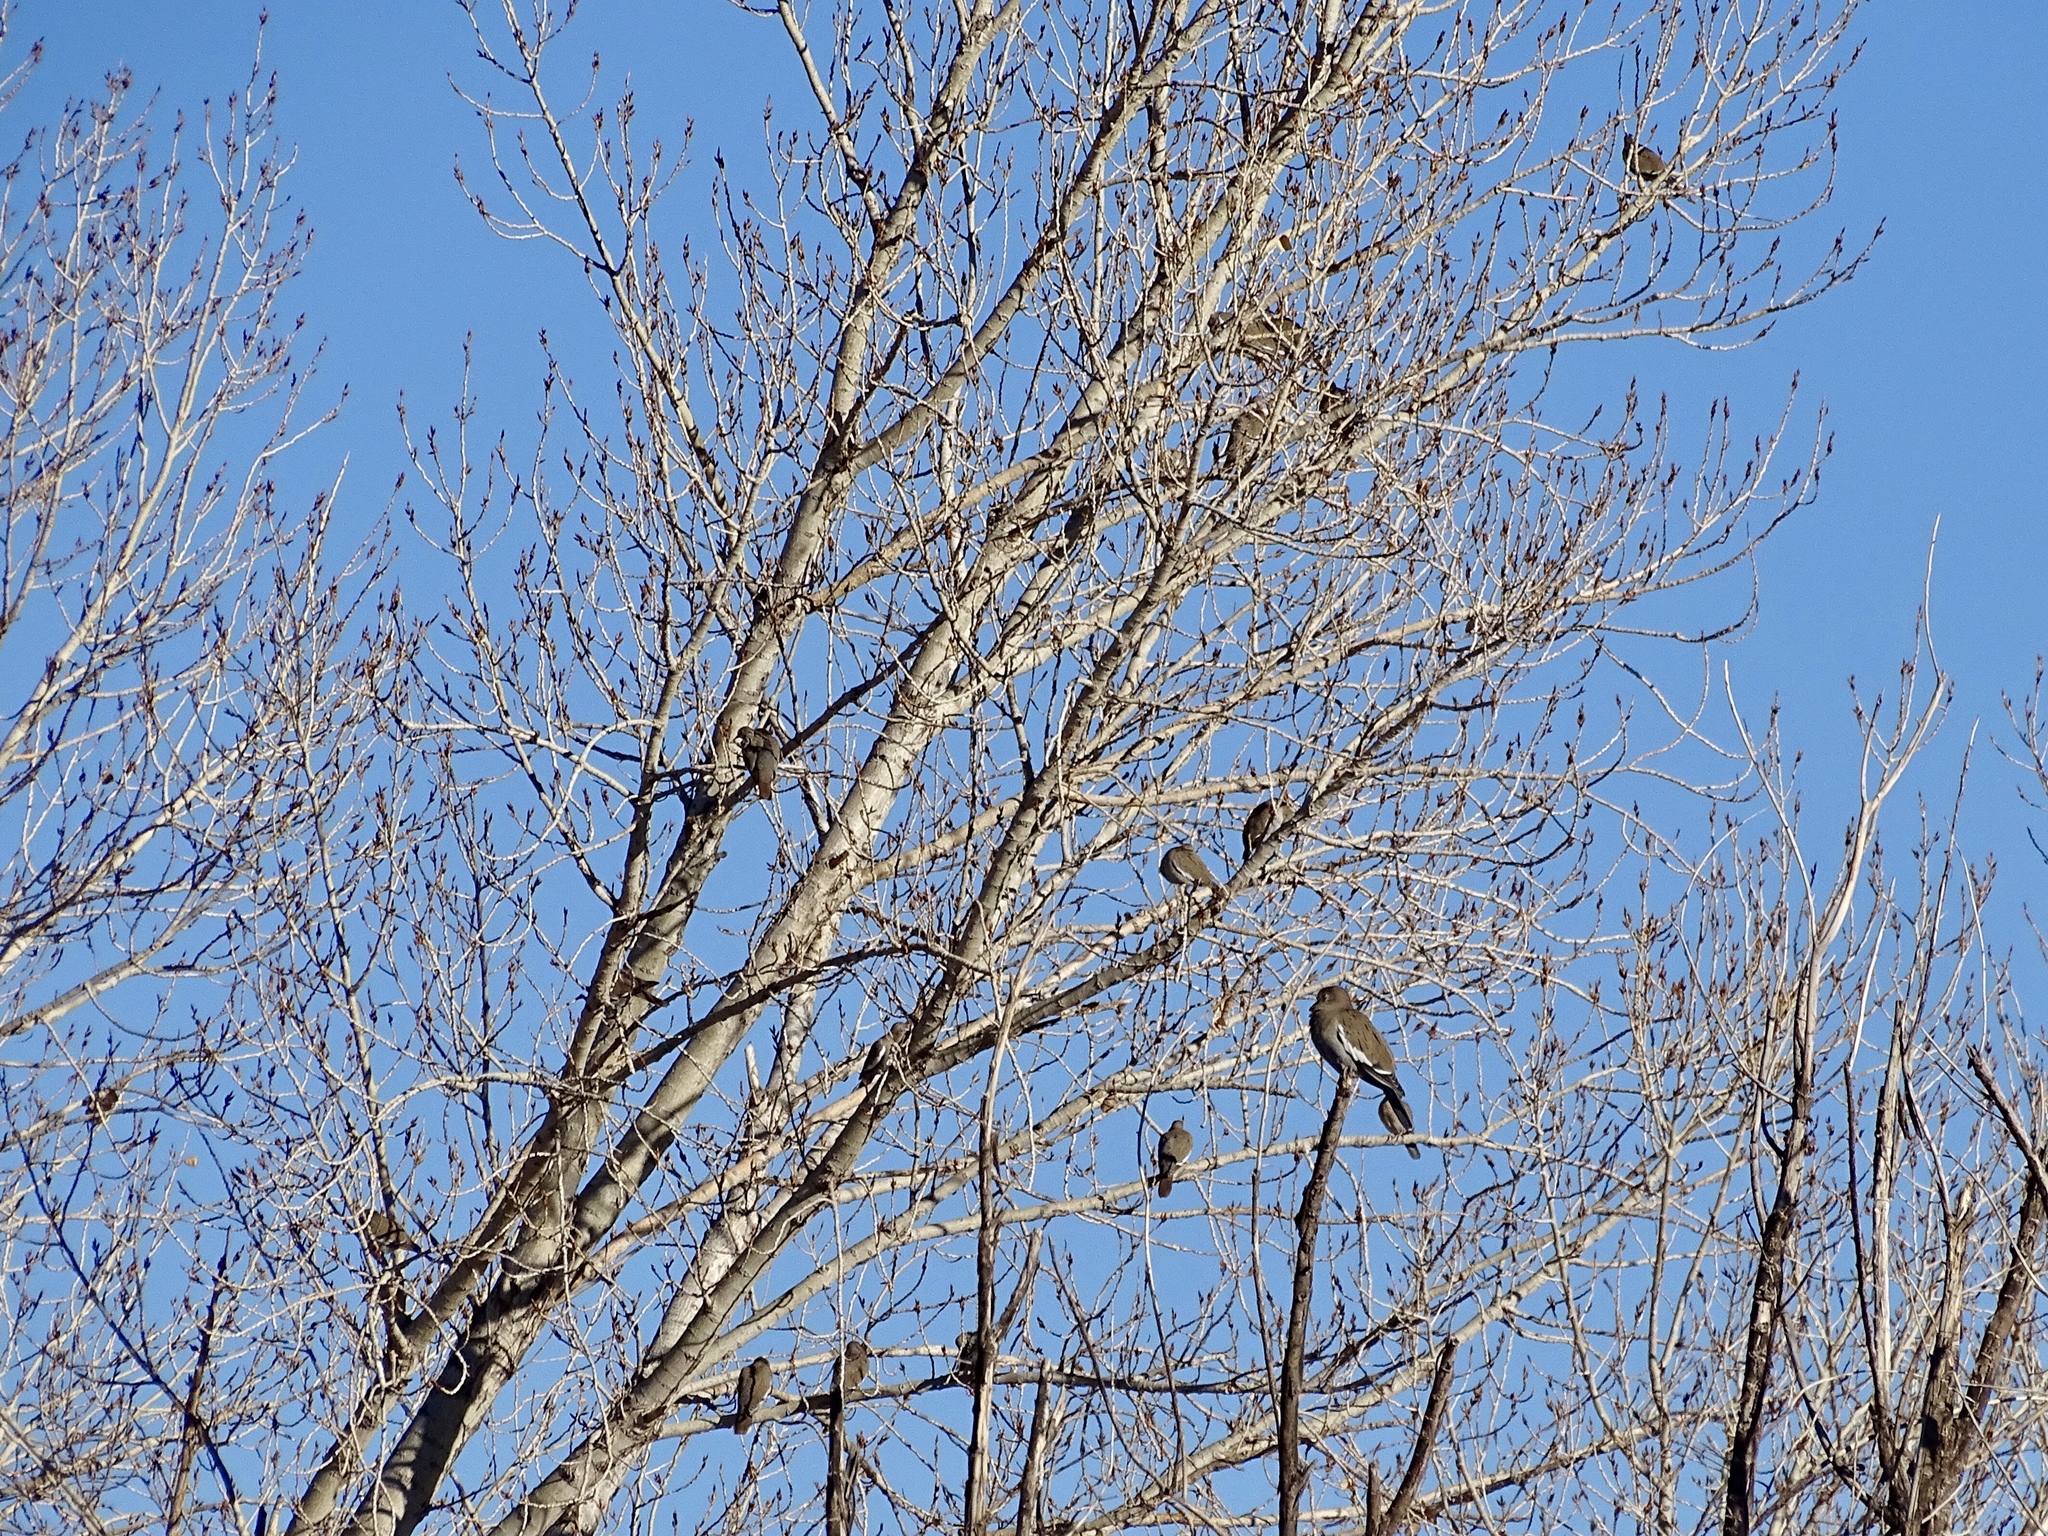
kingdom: Animalia
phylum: Chordata
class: Aves
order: Columbiformes
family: Columbidae
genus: Zenaida
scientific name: Zenaida asiatica
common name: White-winged dove
